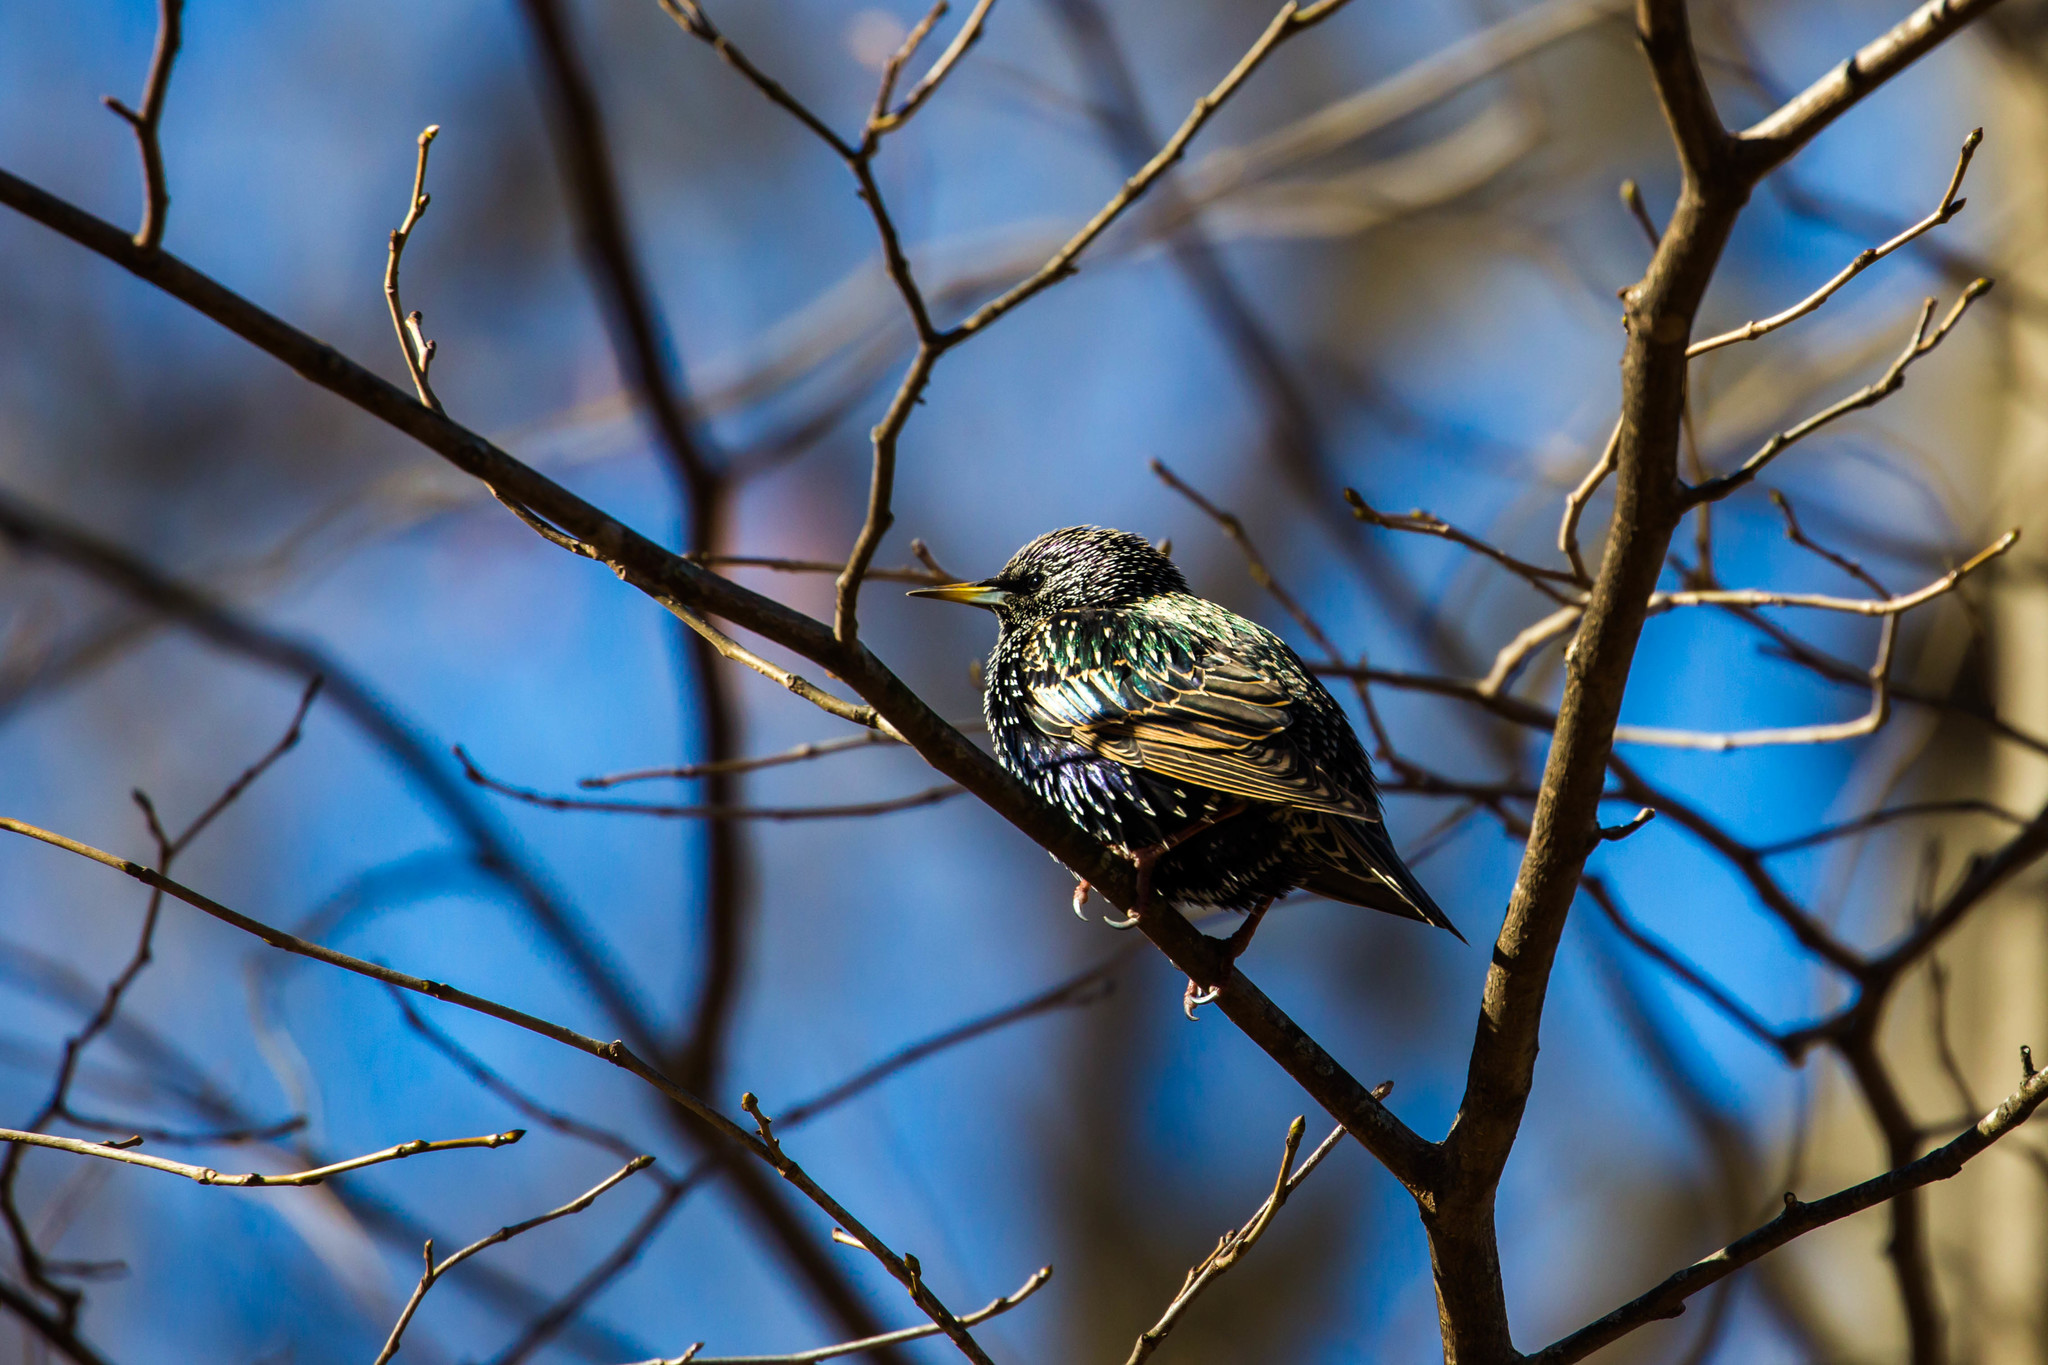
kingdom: Animalia
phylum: Chordata
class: Aves
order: Passeriformes
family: Sturnidae
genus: Sturnus
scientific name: Sturnus vulgaris
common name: Common starling
